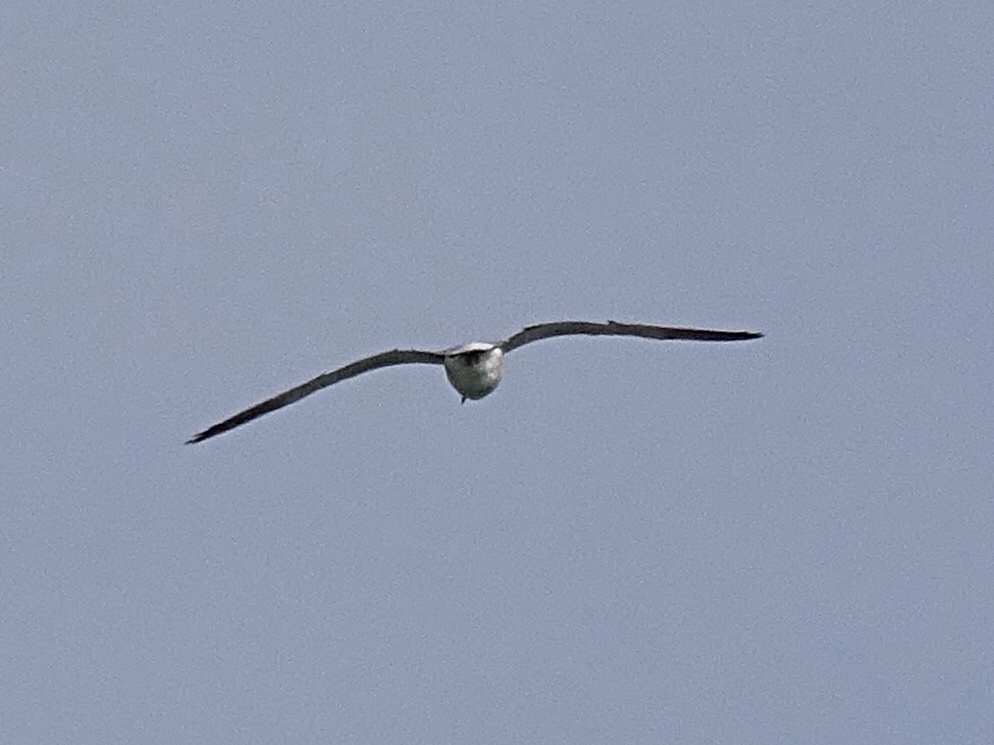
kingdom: Animalia
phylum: Chordata
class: Aves
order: Charadriiformes
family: Laridae
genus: Larus
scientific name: Larus delawarensis
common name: Ring-billed gull
